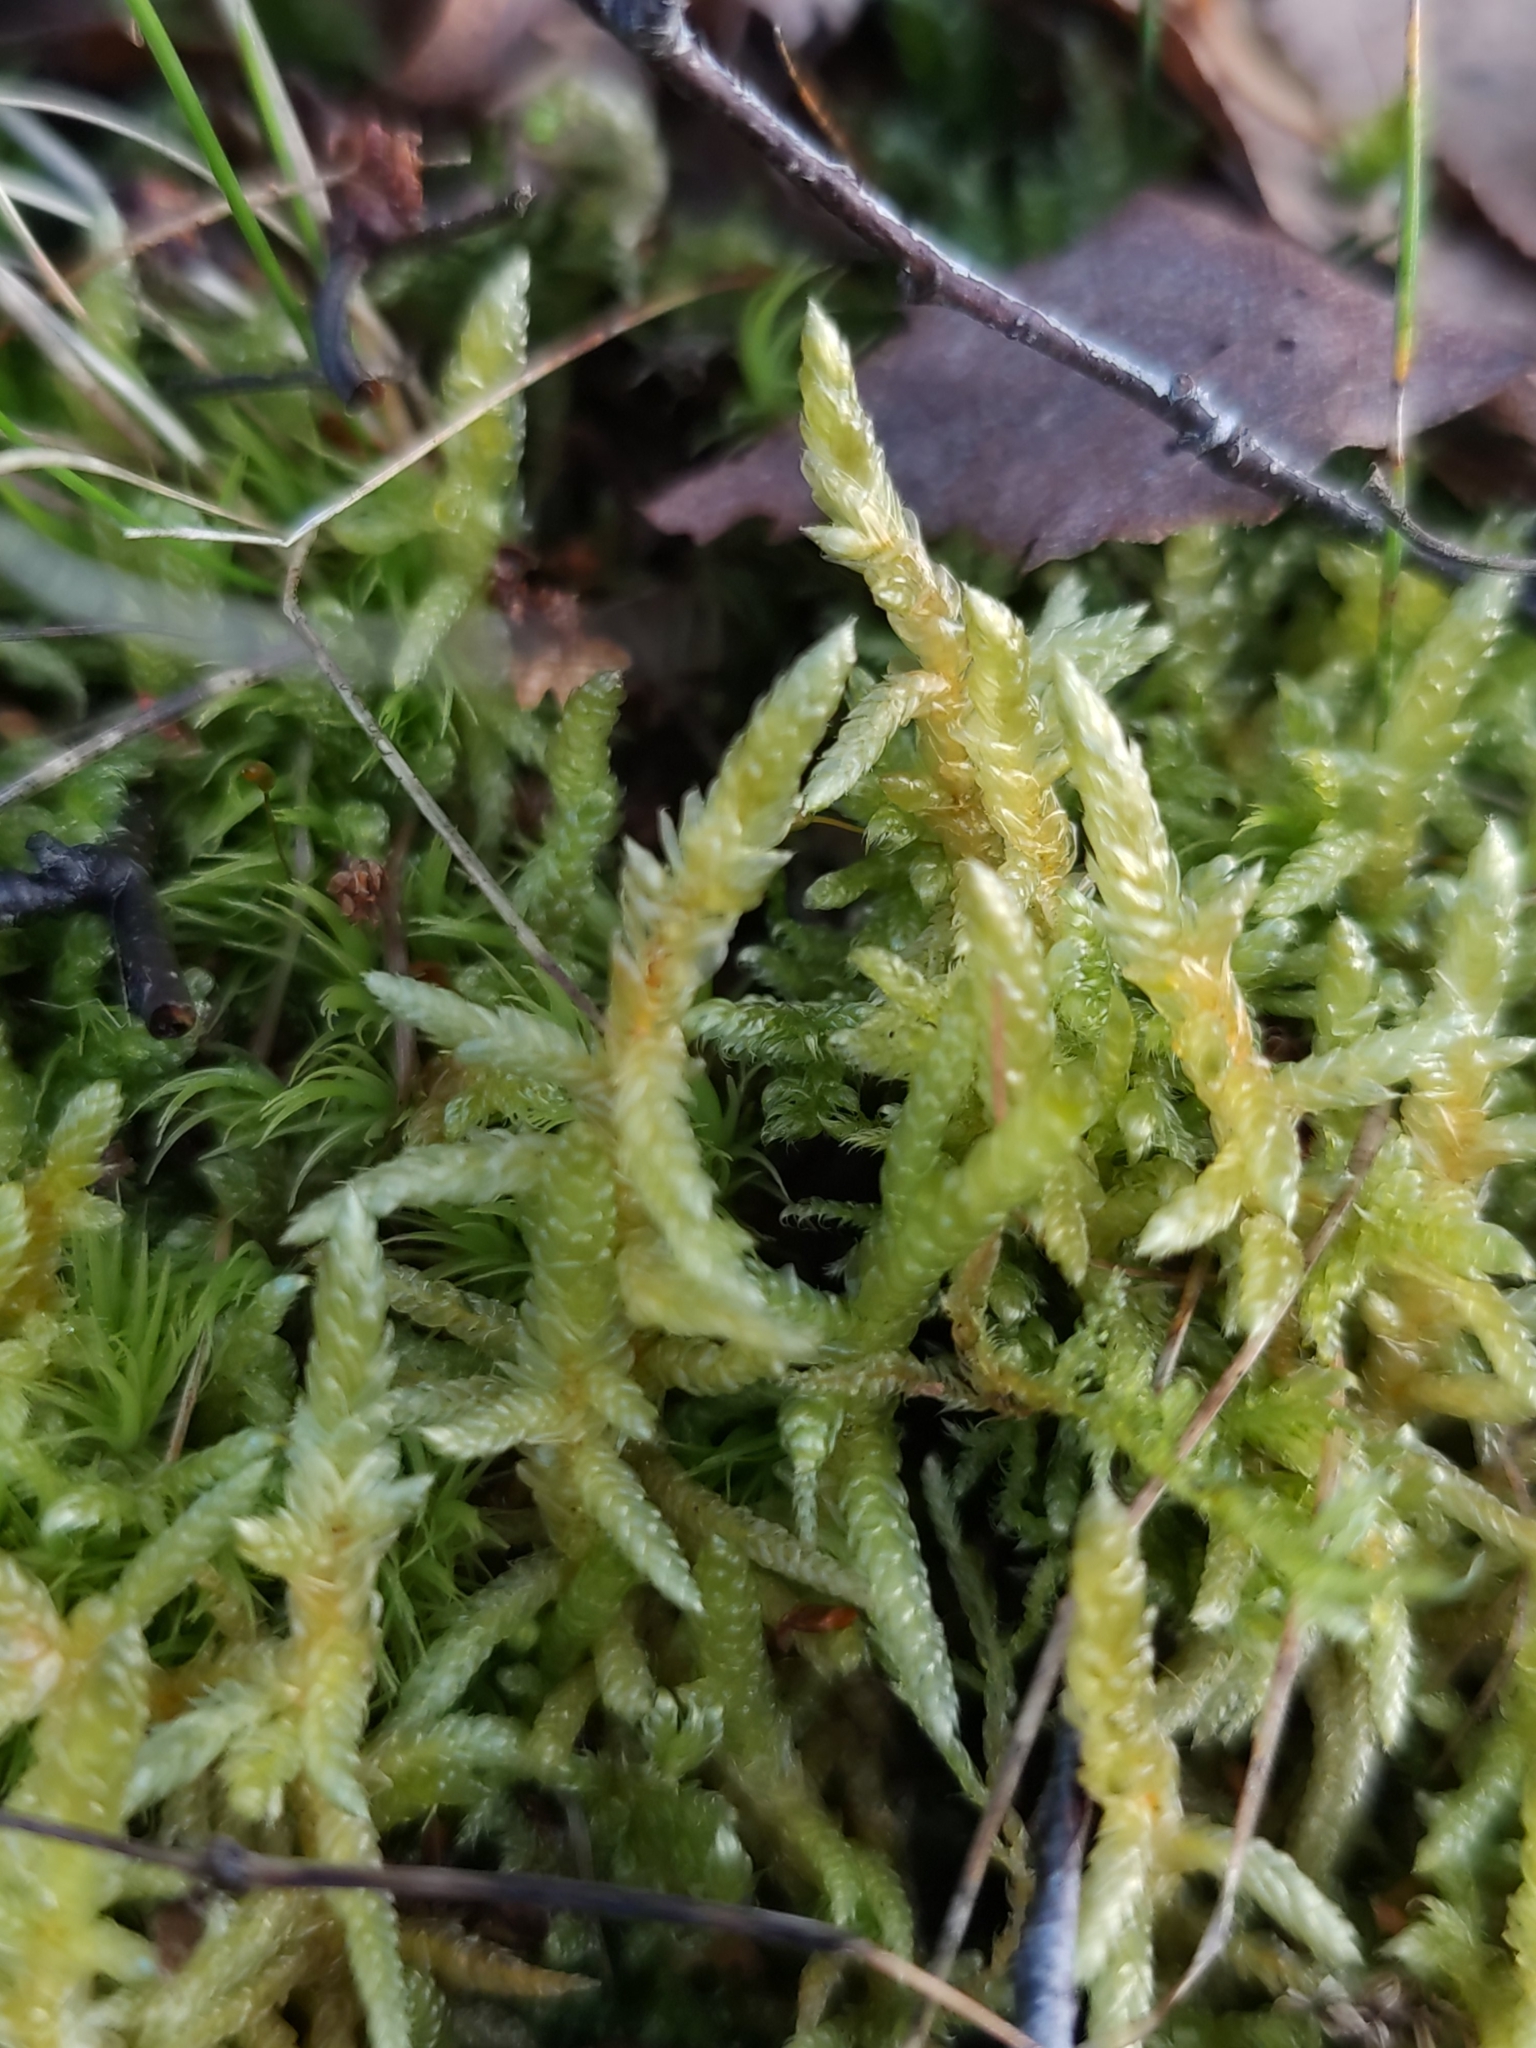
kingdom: Plantae
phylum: Bryophyta
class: Bryopsida
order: Hypnales
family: Brachytheciaceae
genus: Pseudoscleropodium
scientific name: Pseudoscleropodium purum
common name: Neat feather-moss
